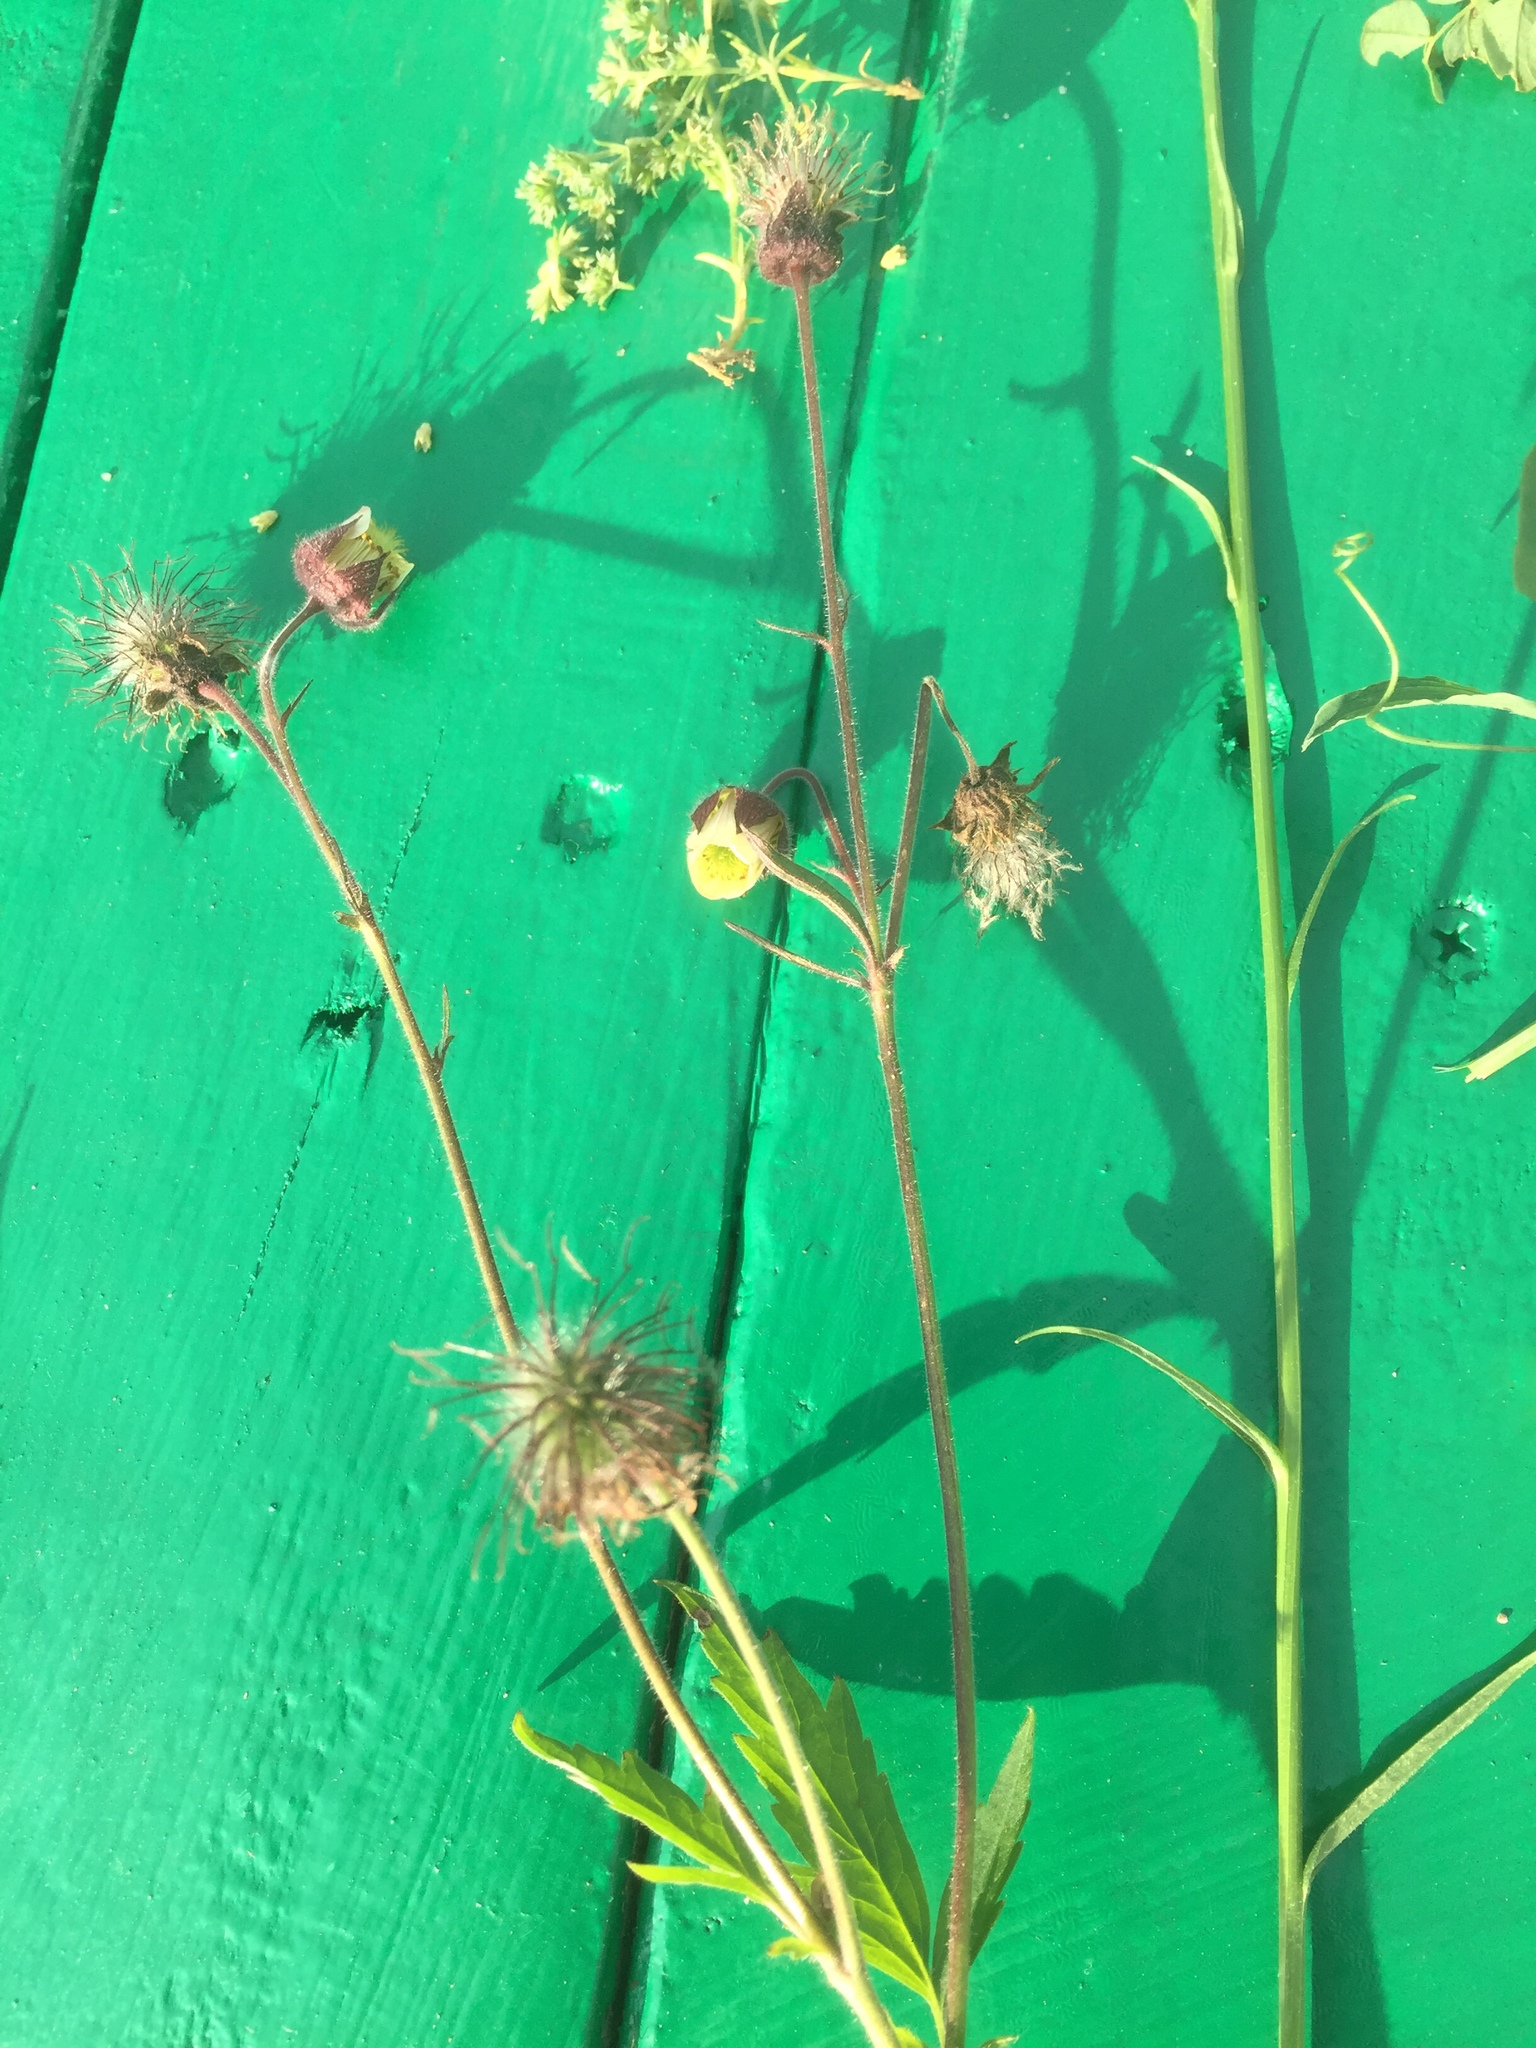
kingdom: Plantae
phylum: Tracheophyta
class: Magnoliopsida
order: Rosales
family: Rosaceae
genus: Geum
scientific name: Geum rivale
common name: Water avens
